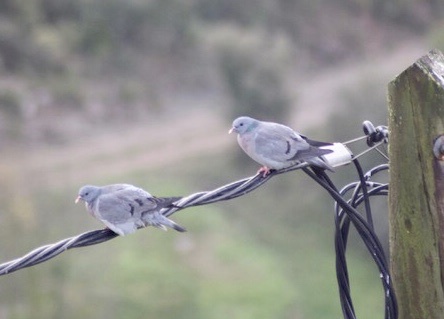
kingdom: Animalia
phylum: Chordata
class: Aves
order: Columbiformes
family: Columbidae
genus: Columba
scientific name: Columba oenas
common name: Stock dove
